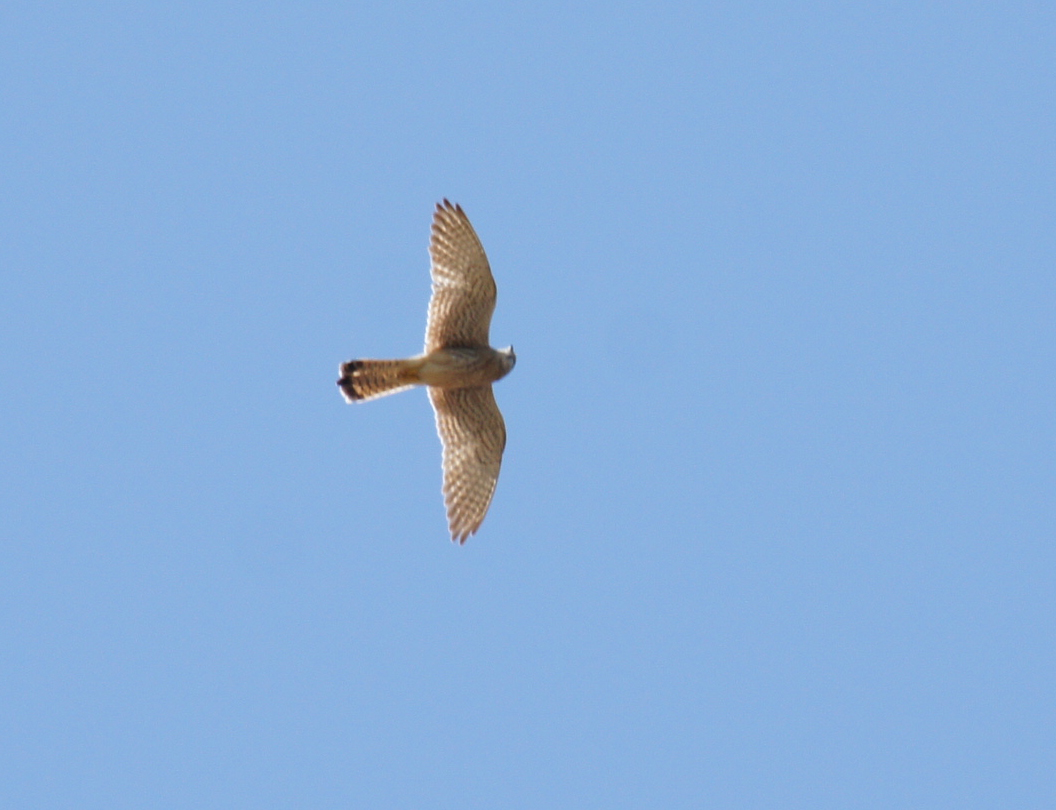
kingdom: Animalia
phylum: Chordata
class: Aves
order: Falconiformes
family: Falconidae
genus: Falco
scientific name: Falco tinnunculus
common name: Common kestrel
